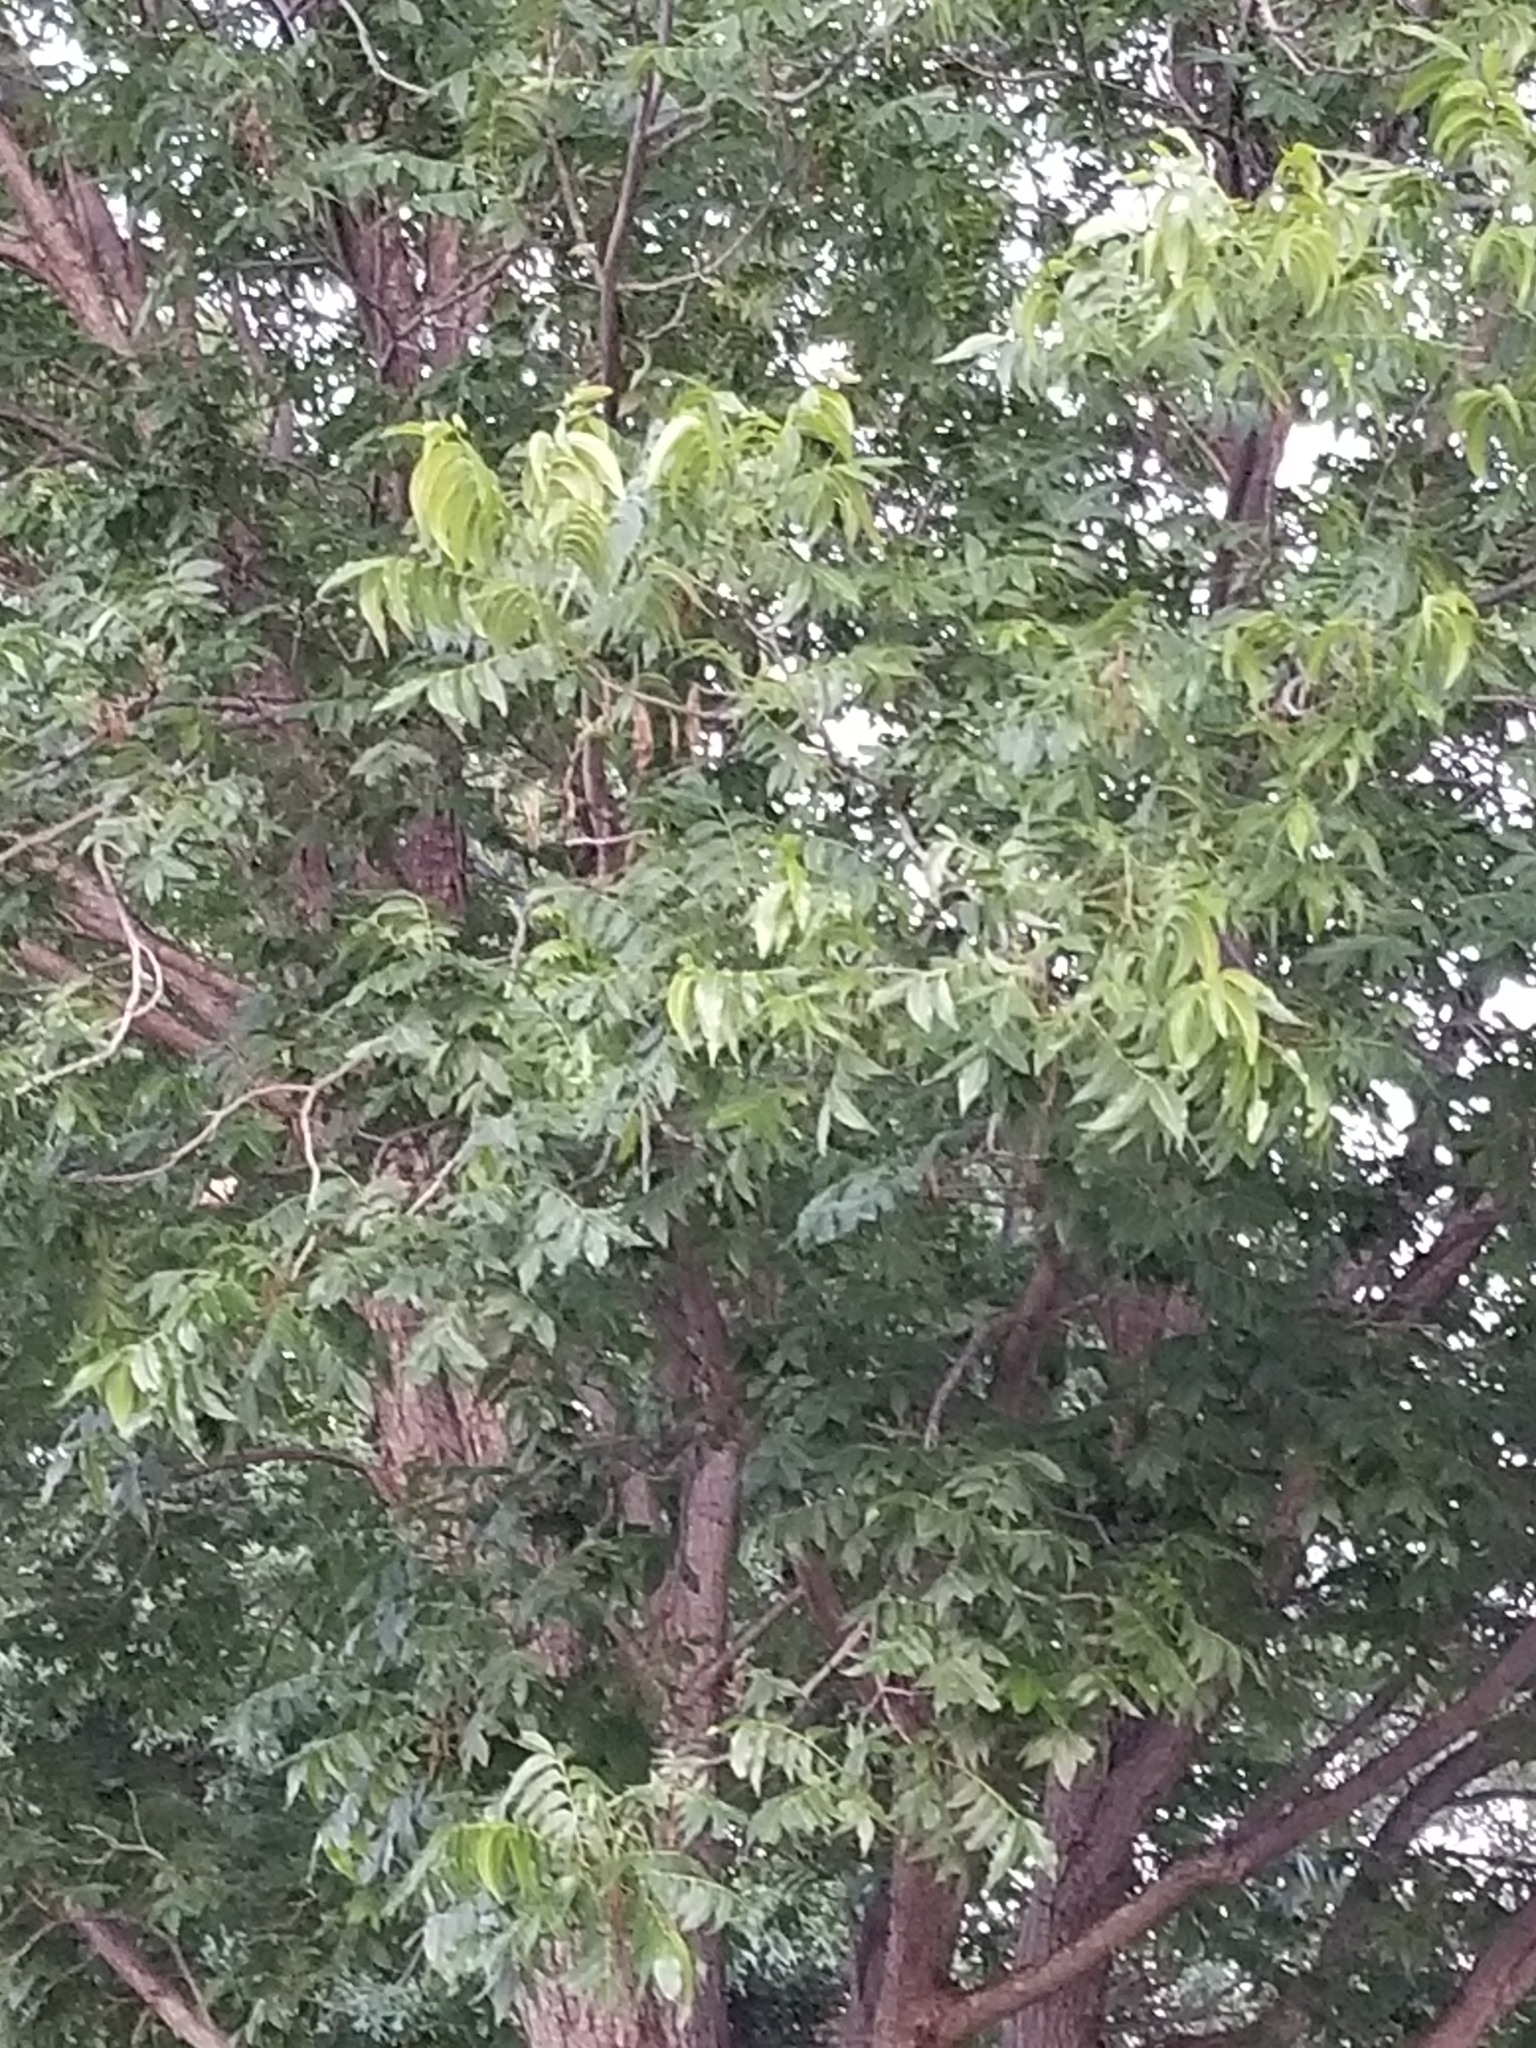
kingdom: Plantae
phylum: Tracheophyta
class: Magnoliopsida
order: Fagales
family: Juglandaceae
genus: Carya
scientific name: Carya illinoinensis
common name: Pecan
